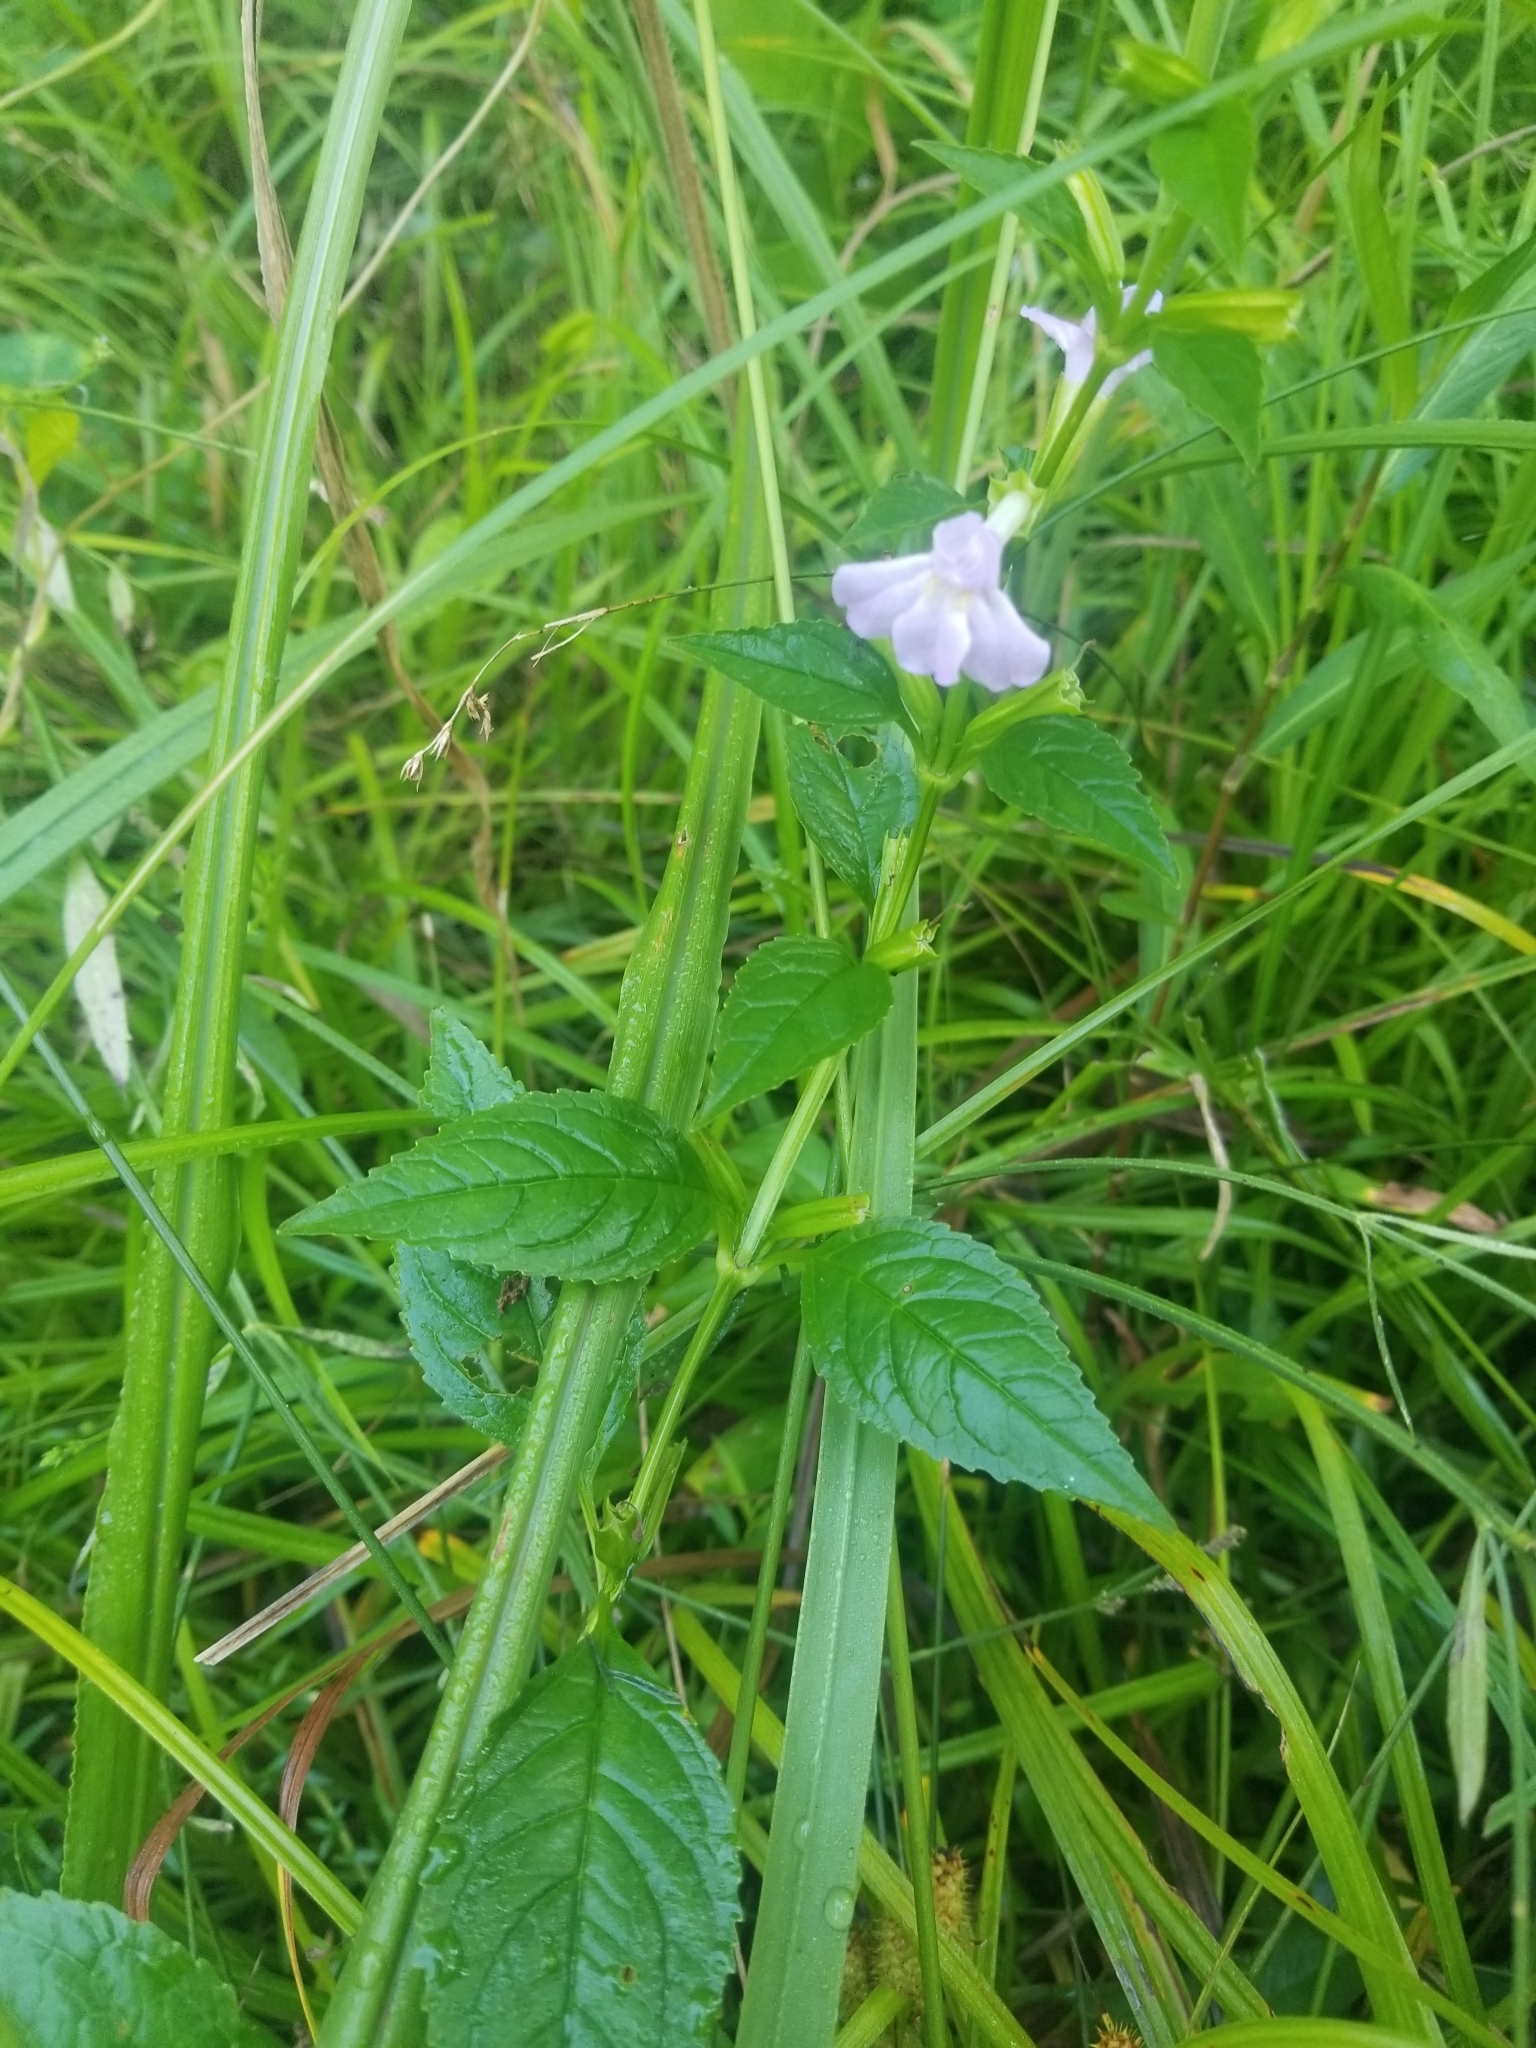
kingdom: Plantae
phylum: Tracheophyta
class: Magnoliopsida
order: Lamiales
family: Phrymaceae
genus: Mimulus
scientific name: Mimulus alatus
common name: Sharp-wing monkey-flower
